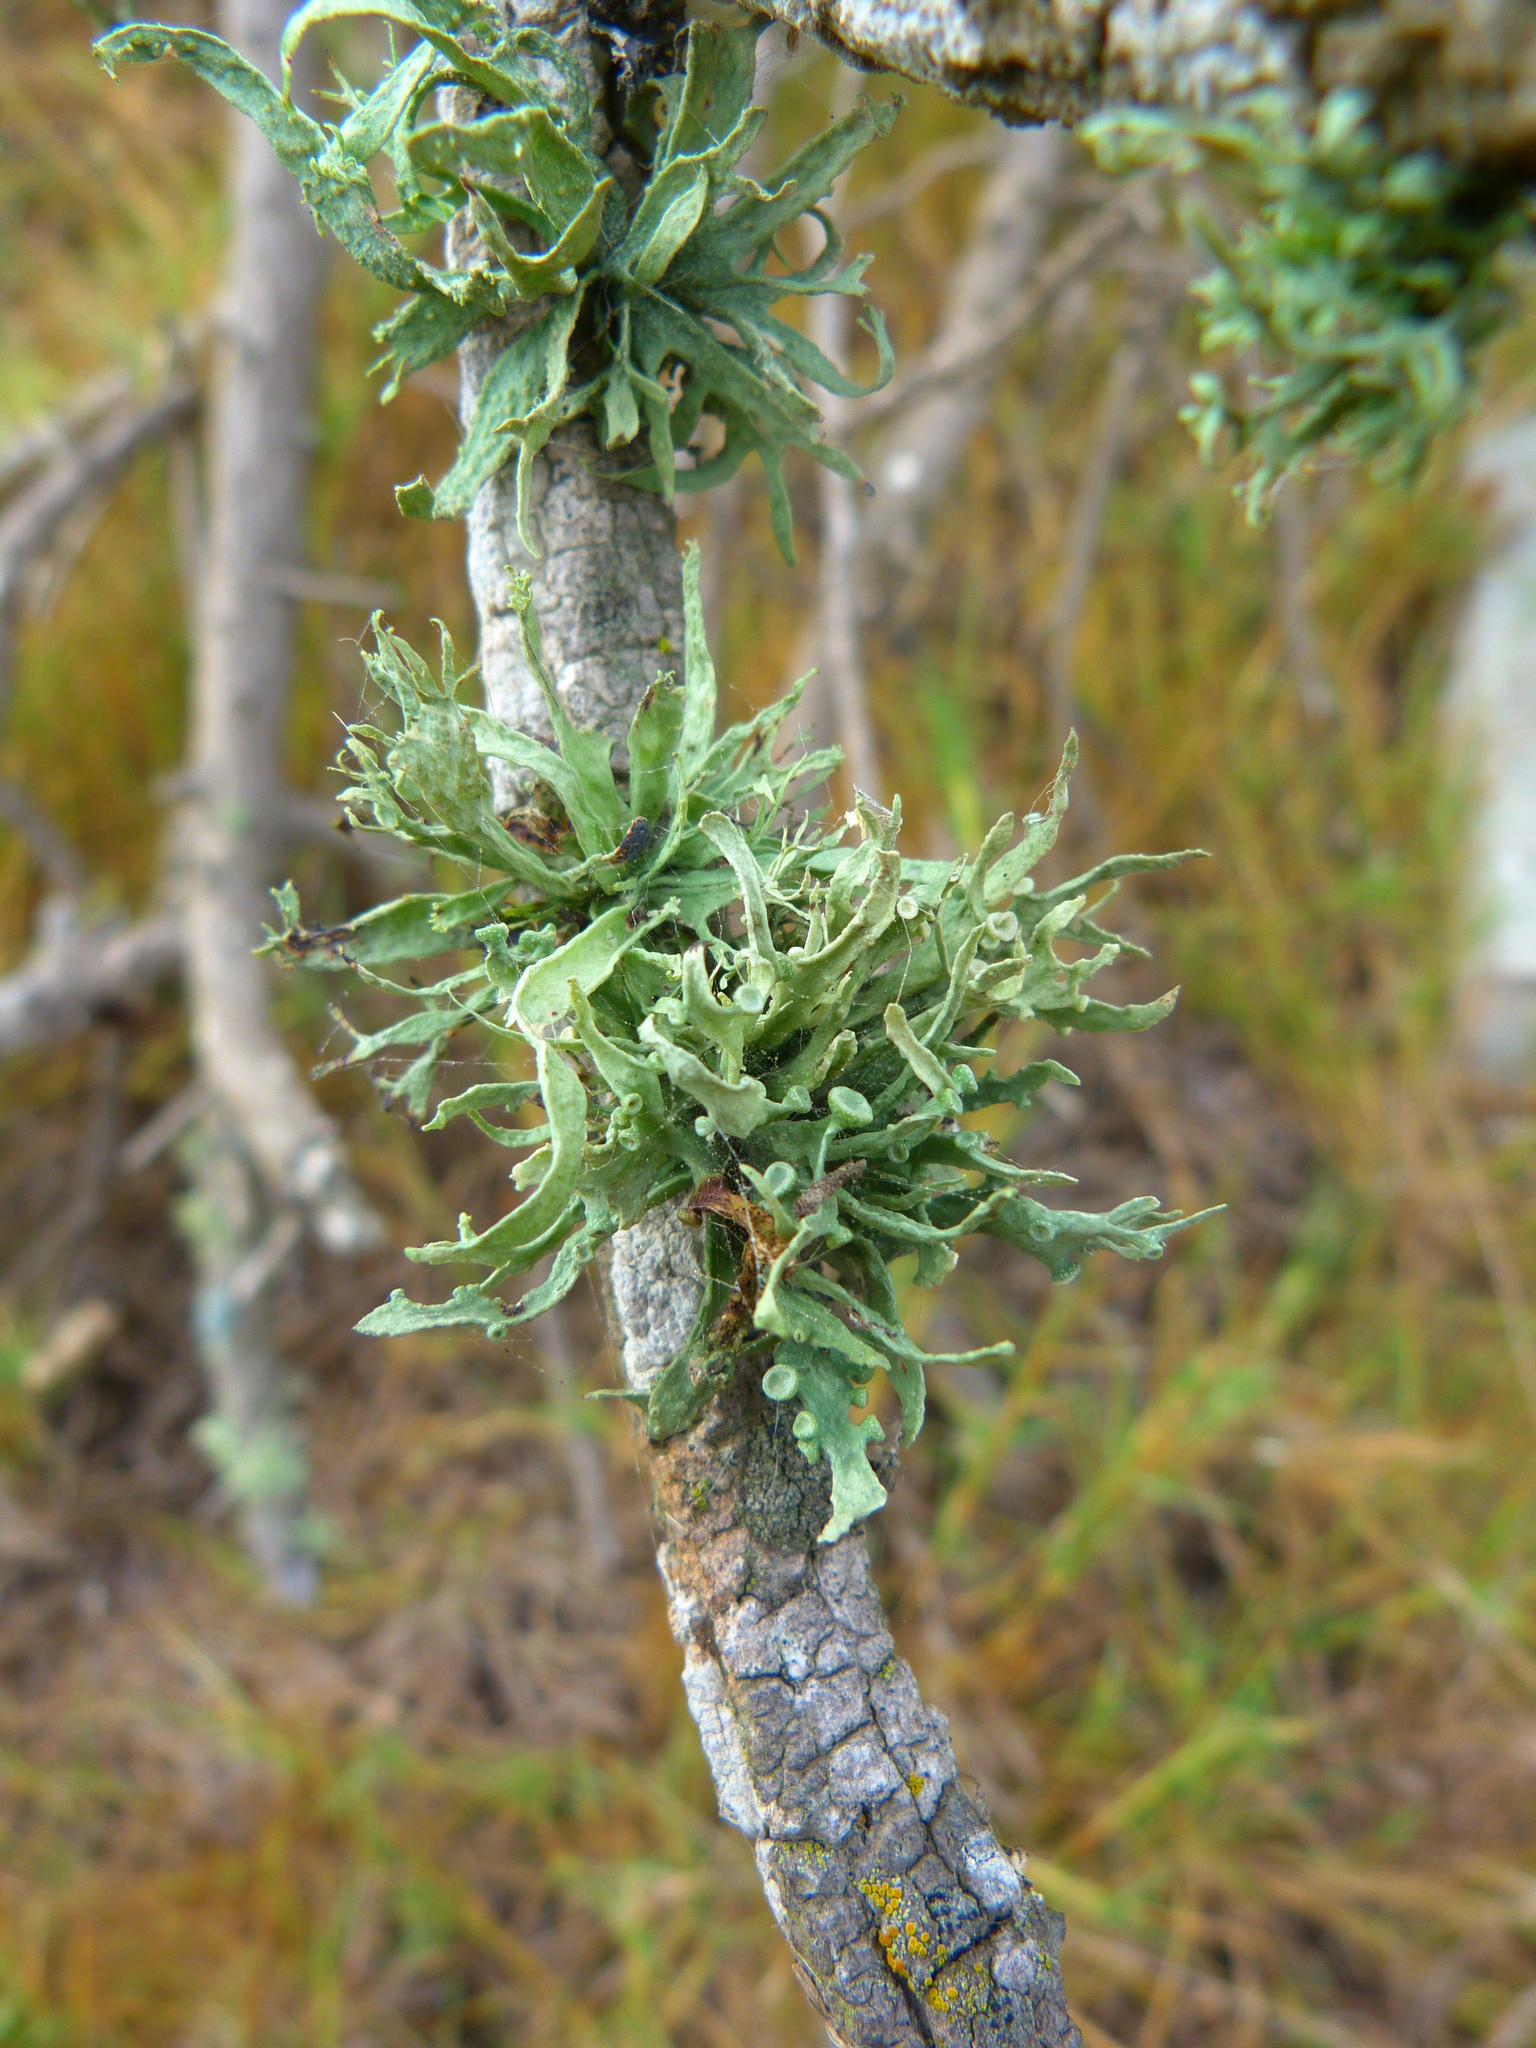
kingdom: Fungi
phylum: Ascomycota
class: Lecanoromycetes
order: Lecanorales
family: Ramalinaceae
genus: Ramalina
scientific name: Ramalina leptocarpha
